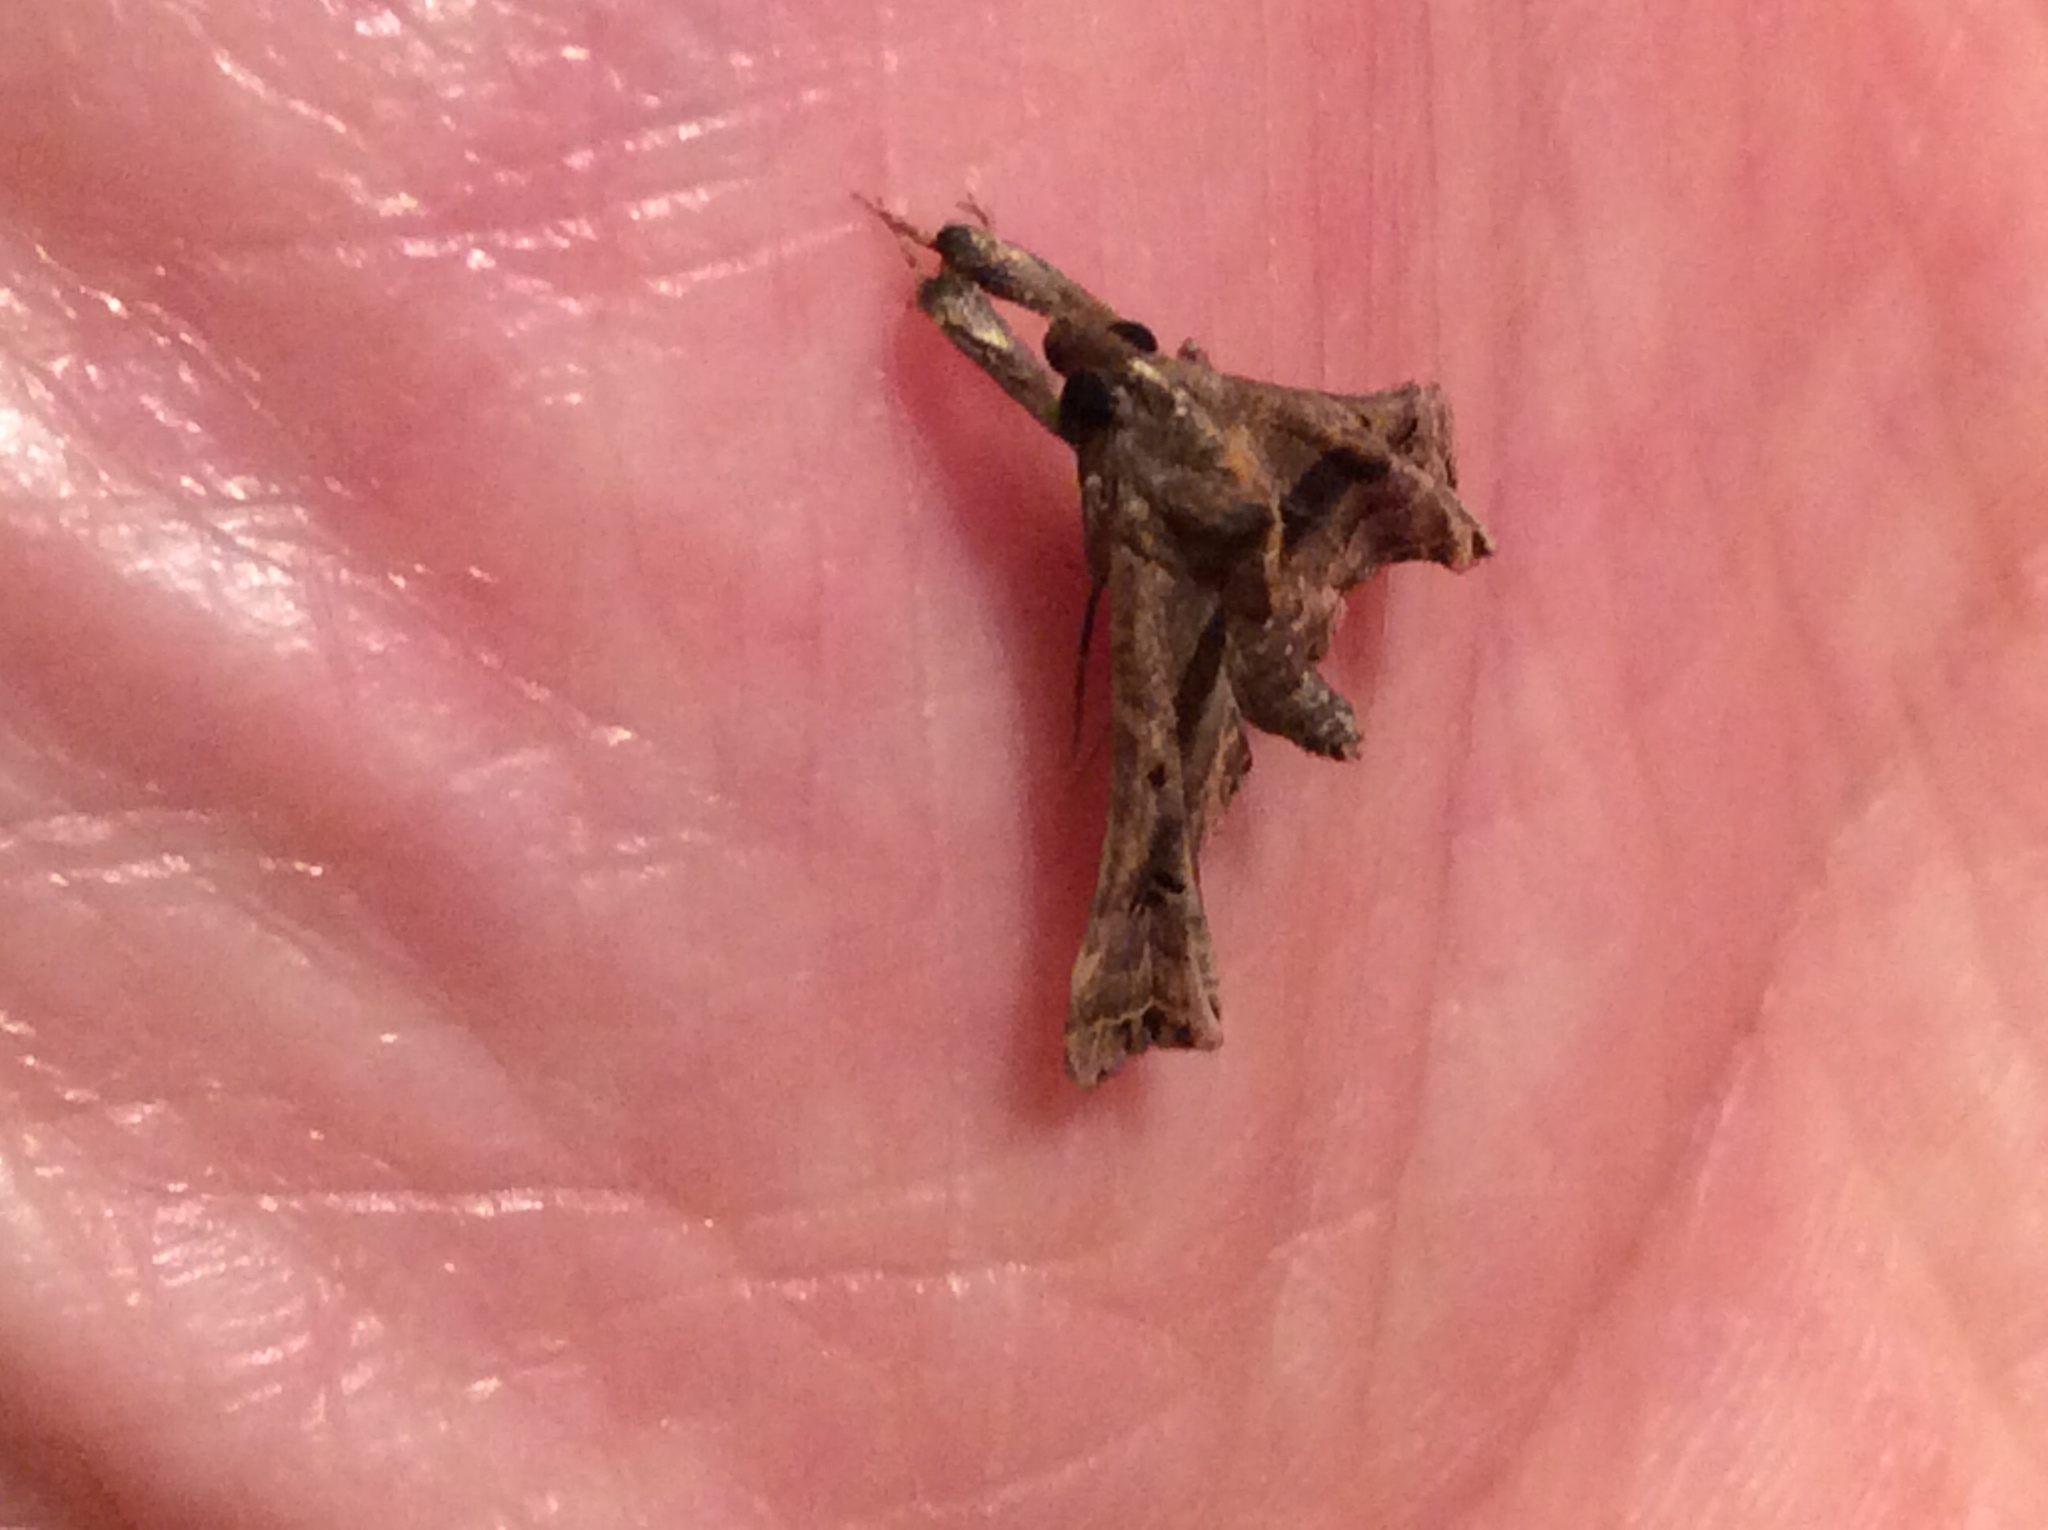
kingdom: Animalia
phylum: Arthropoda
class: Insecta
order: Lepidoptera
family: Erebidae
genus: Palthis
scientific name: Palthis asopialis
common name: Faint-spotted palthis moth
